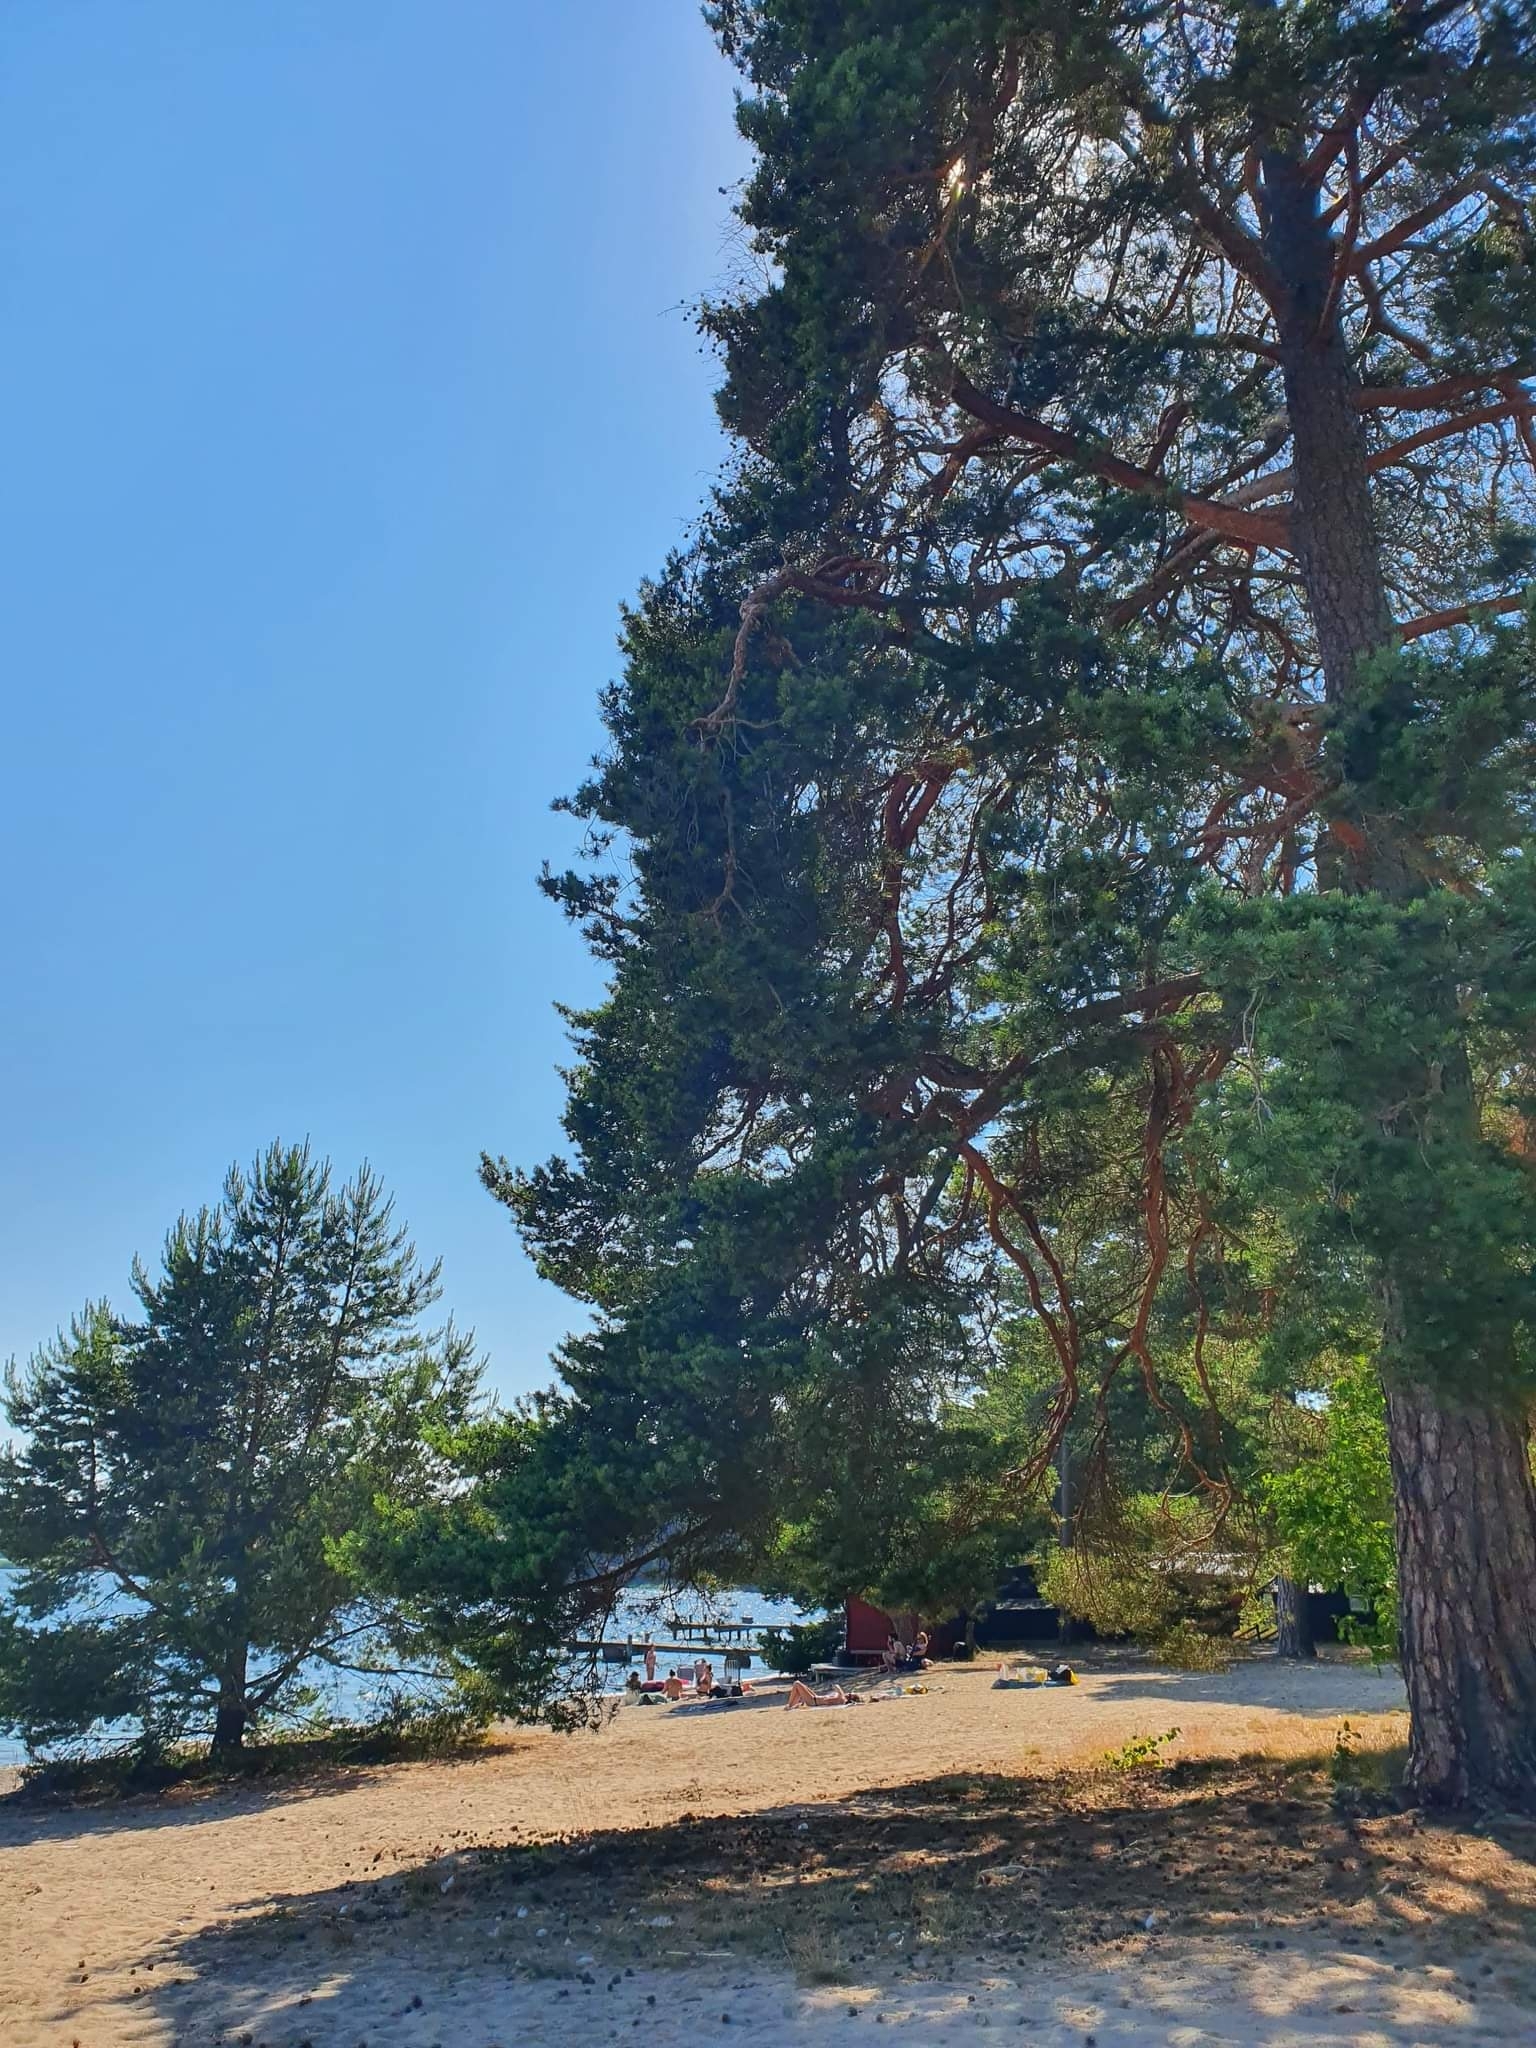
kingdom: Plantae
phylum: Tracheophyta
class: Pinopsida
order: Pinales
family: Pinaceae
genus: Pinus
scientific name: Pinus sylvestris
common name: Scots pine
